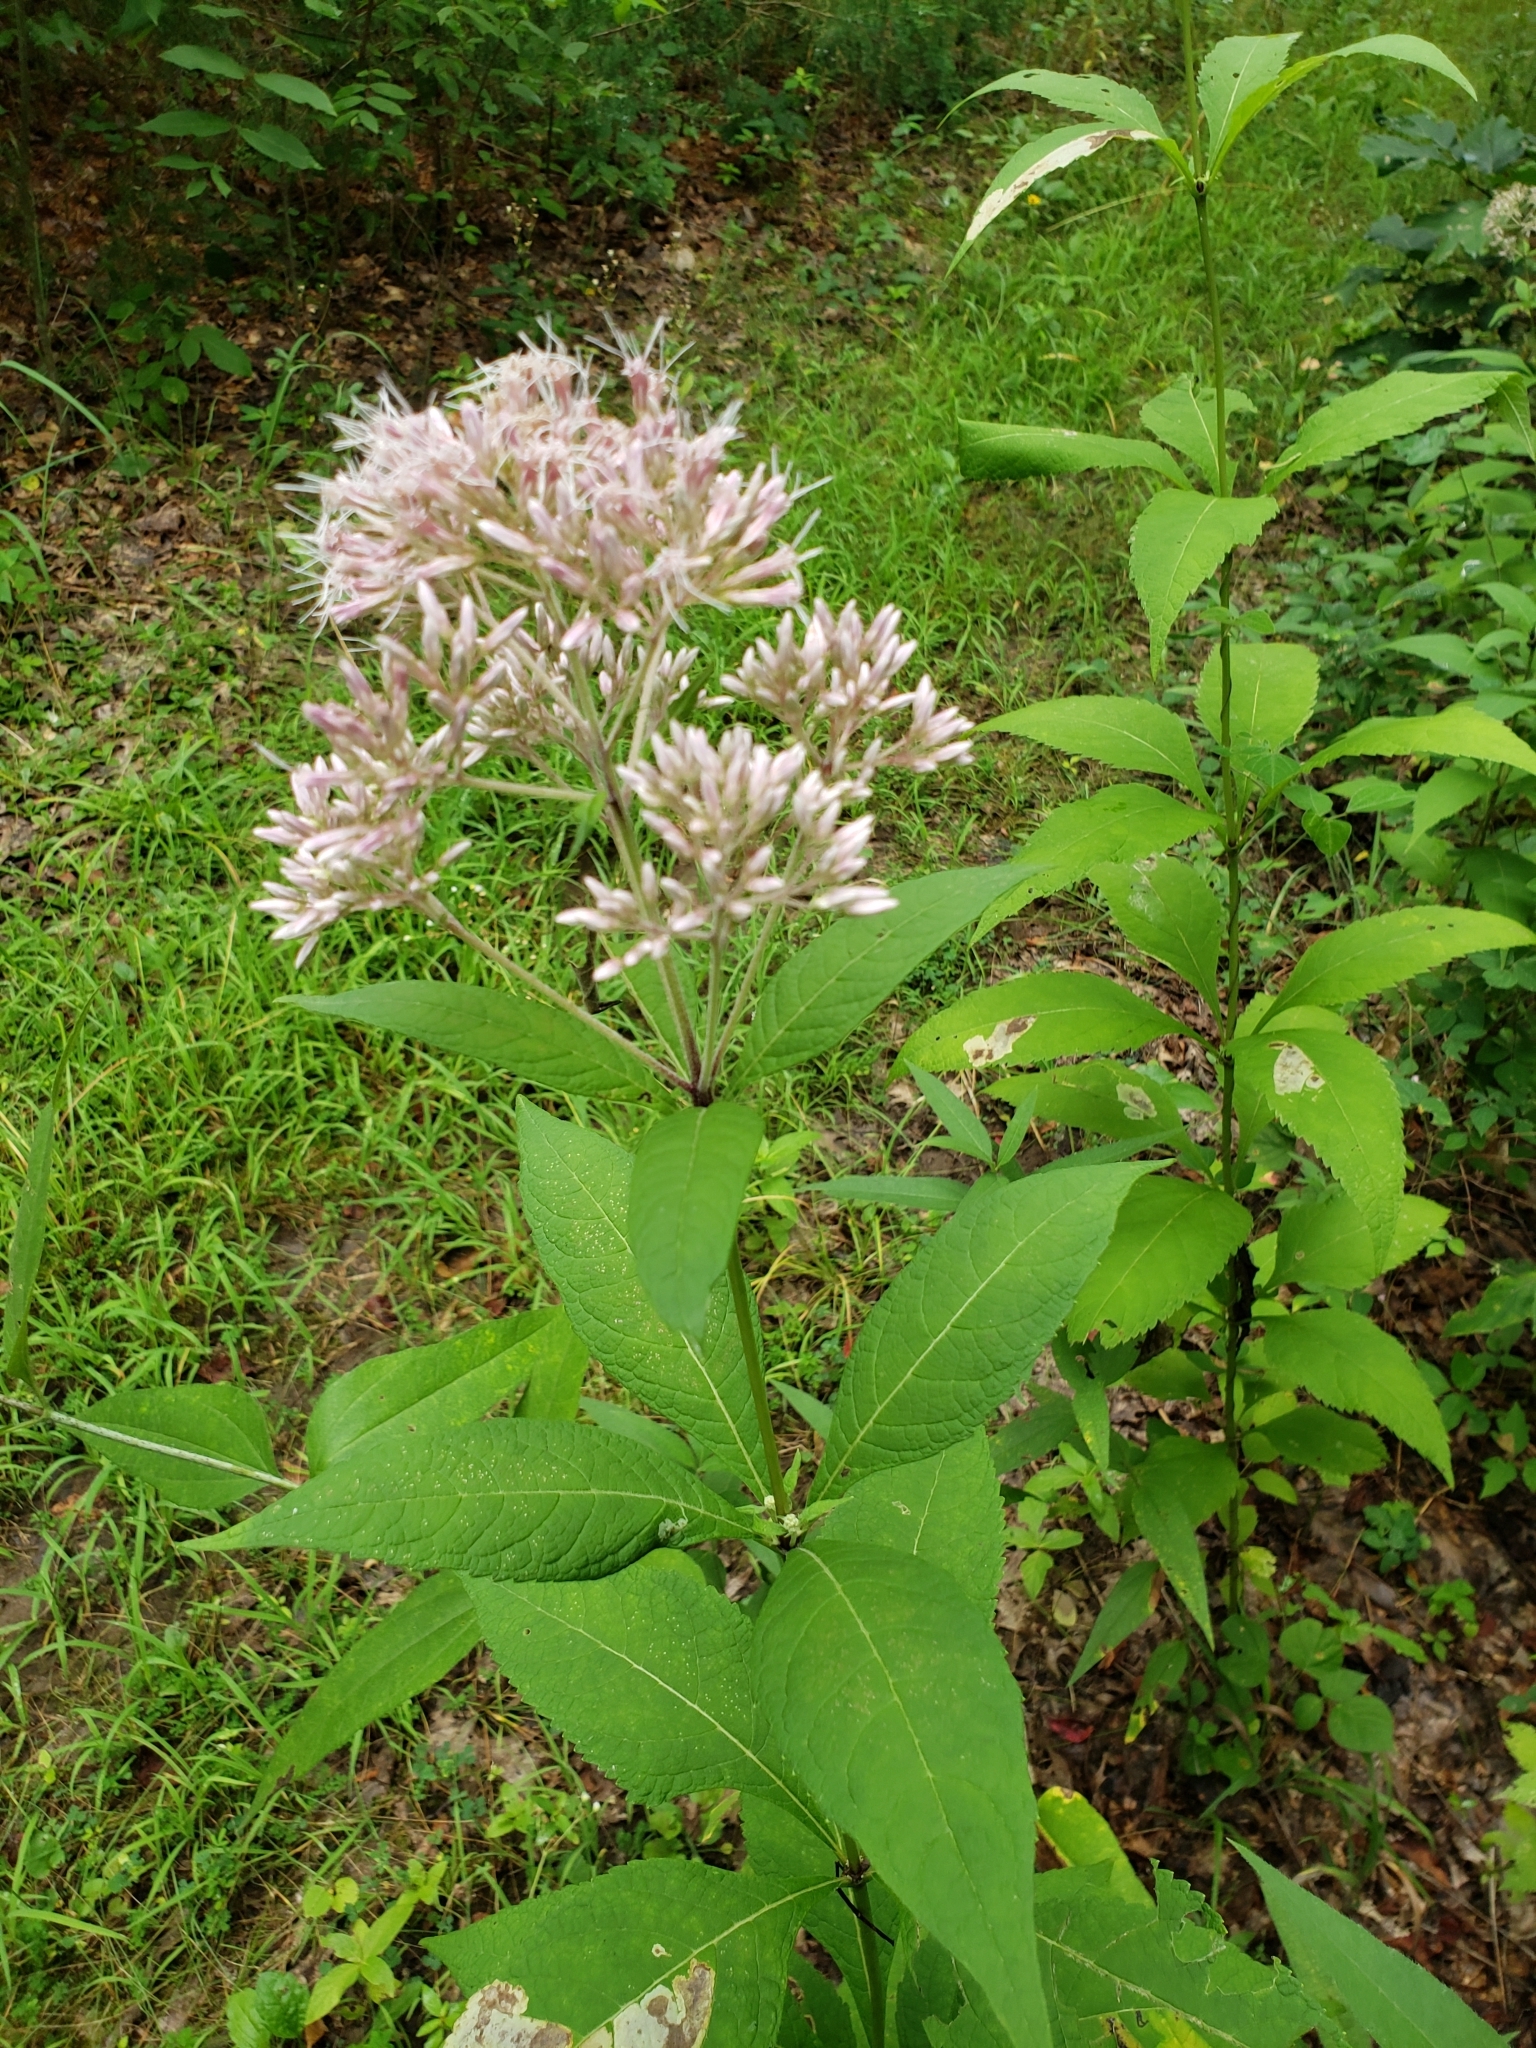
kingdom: Plantae
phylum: Tracheophyta
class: Magnoliopsida
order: Asterales
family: Asteraceae
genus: Eutrochium
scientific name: Eutrochium purpureum
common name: Gravelroot
